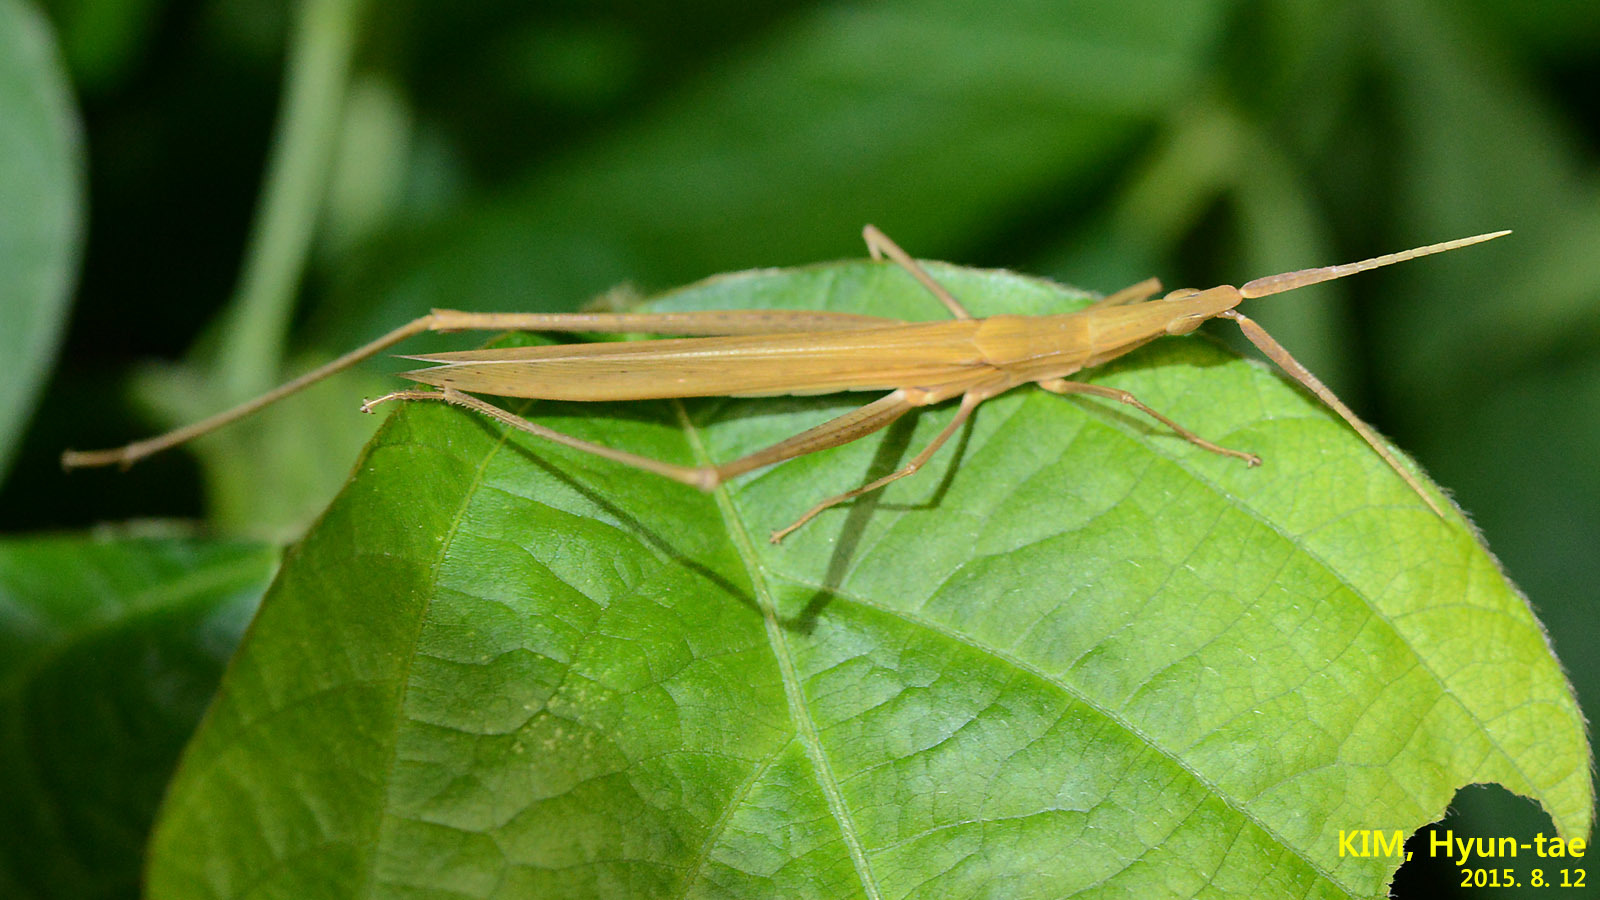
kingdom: Animalia
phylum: Arthropoda
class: Insecta
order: Orthoptera
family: Acrididae
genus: Acrida
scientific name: Acrida cinerea
